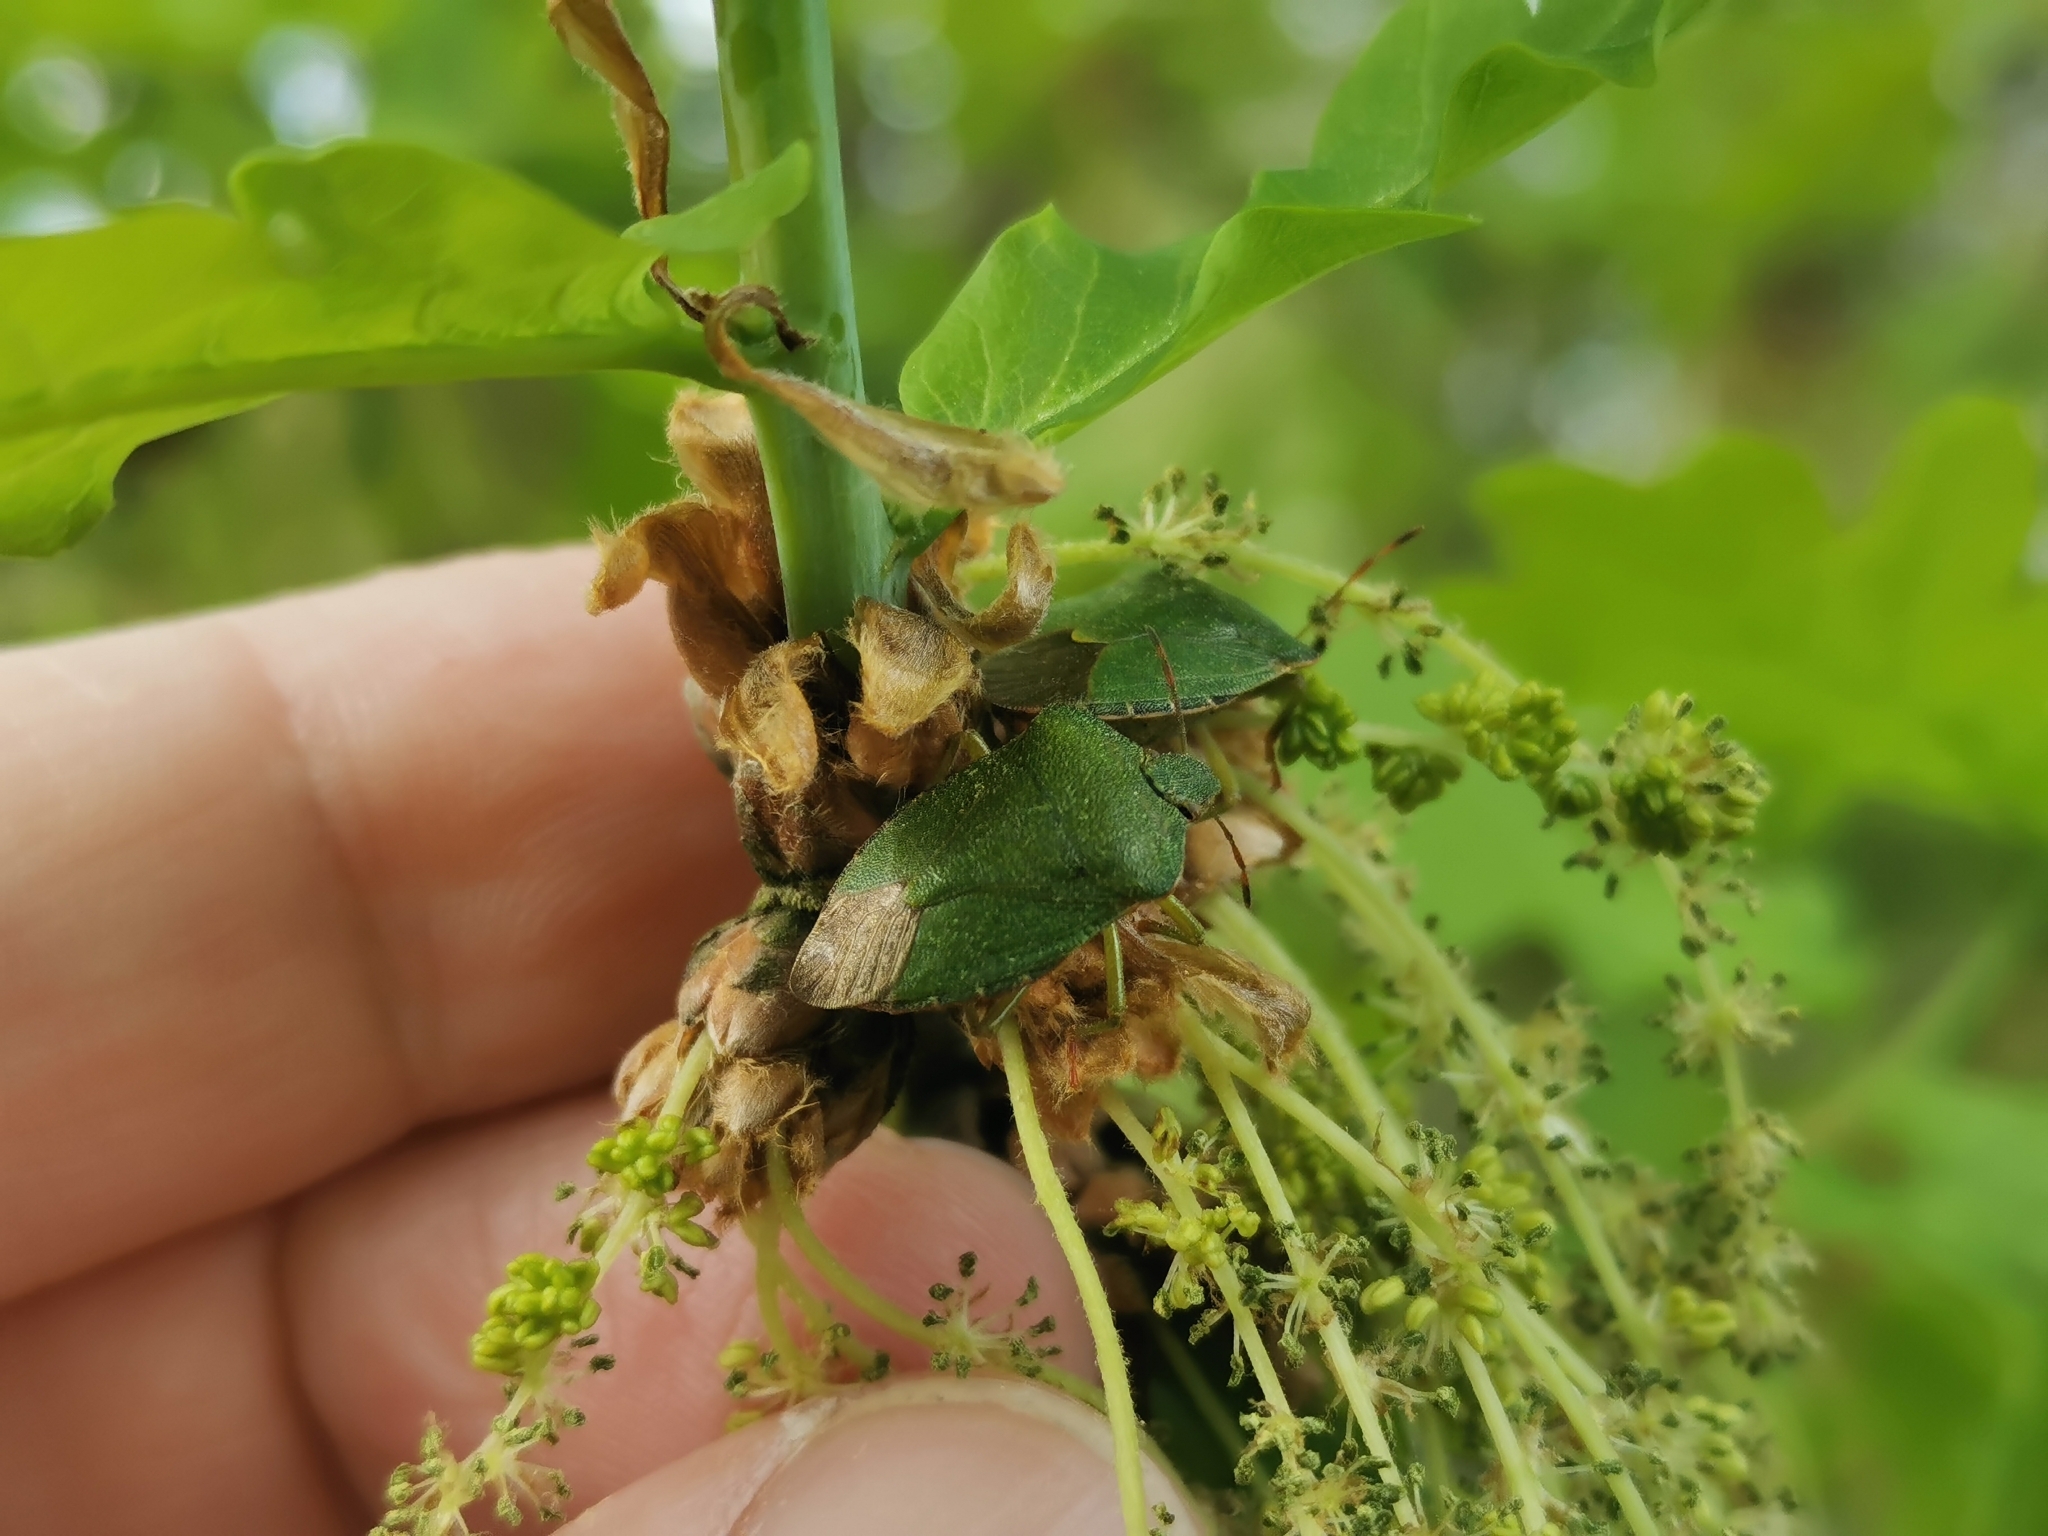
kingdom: Animalia
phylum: Arthropoda
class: Insecta
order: Hemiptera
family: Pentatomidae
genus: Palomena
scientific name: Palomena prasina
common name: Green shieldbug
